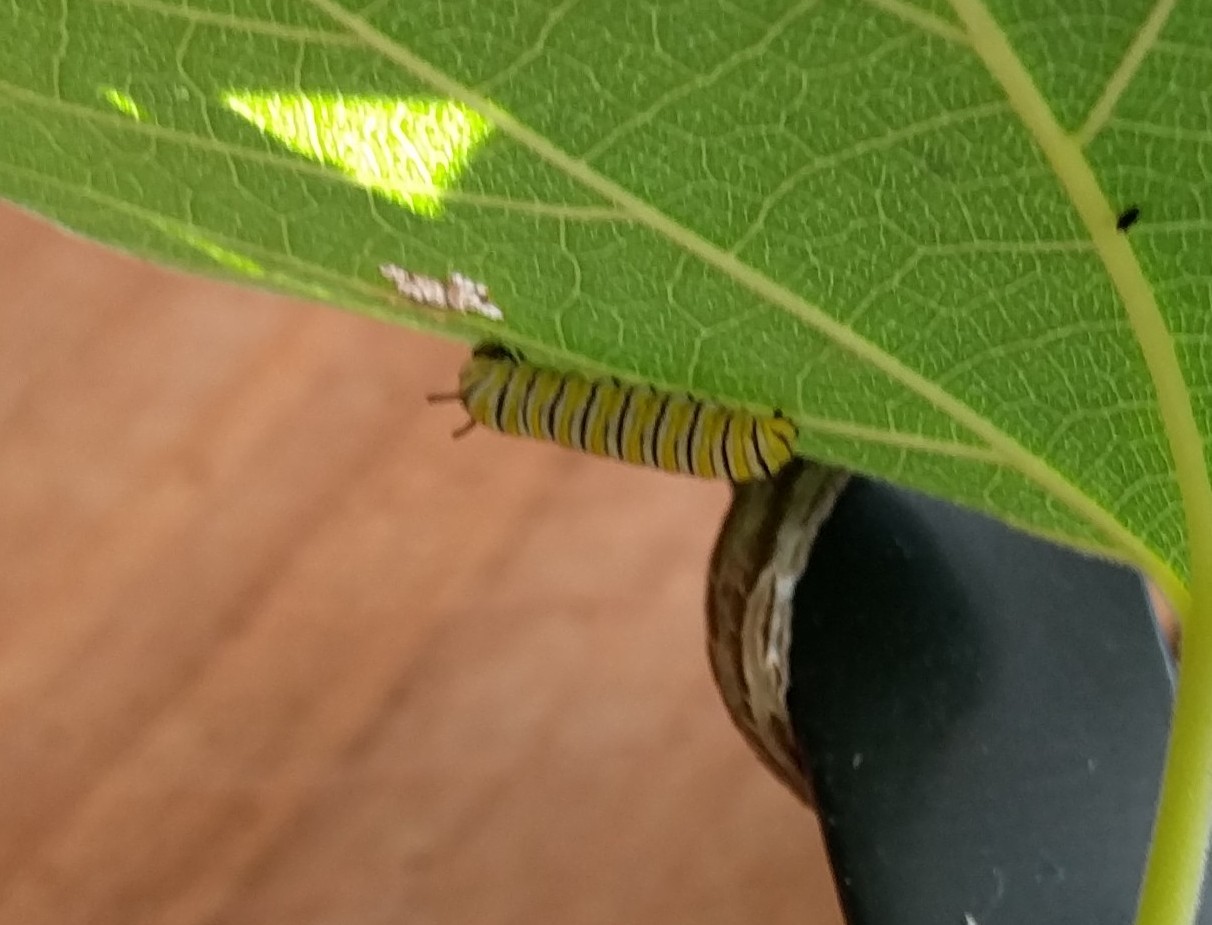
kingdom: Animalia
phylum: Arthropoda
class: Insecta
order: Lepidoptera
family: Nymphalidae
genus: Danaus
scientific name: Danaus plexippus
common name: Monarch
